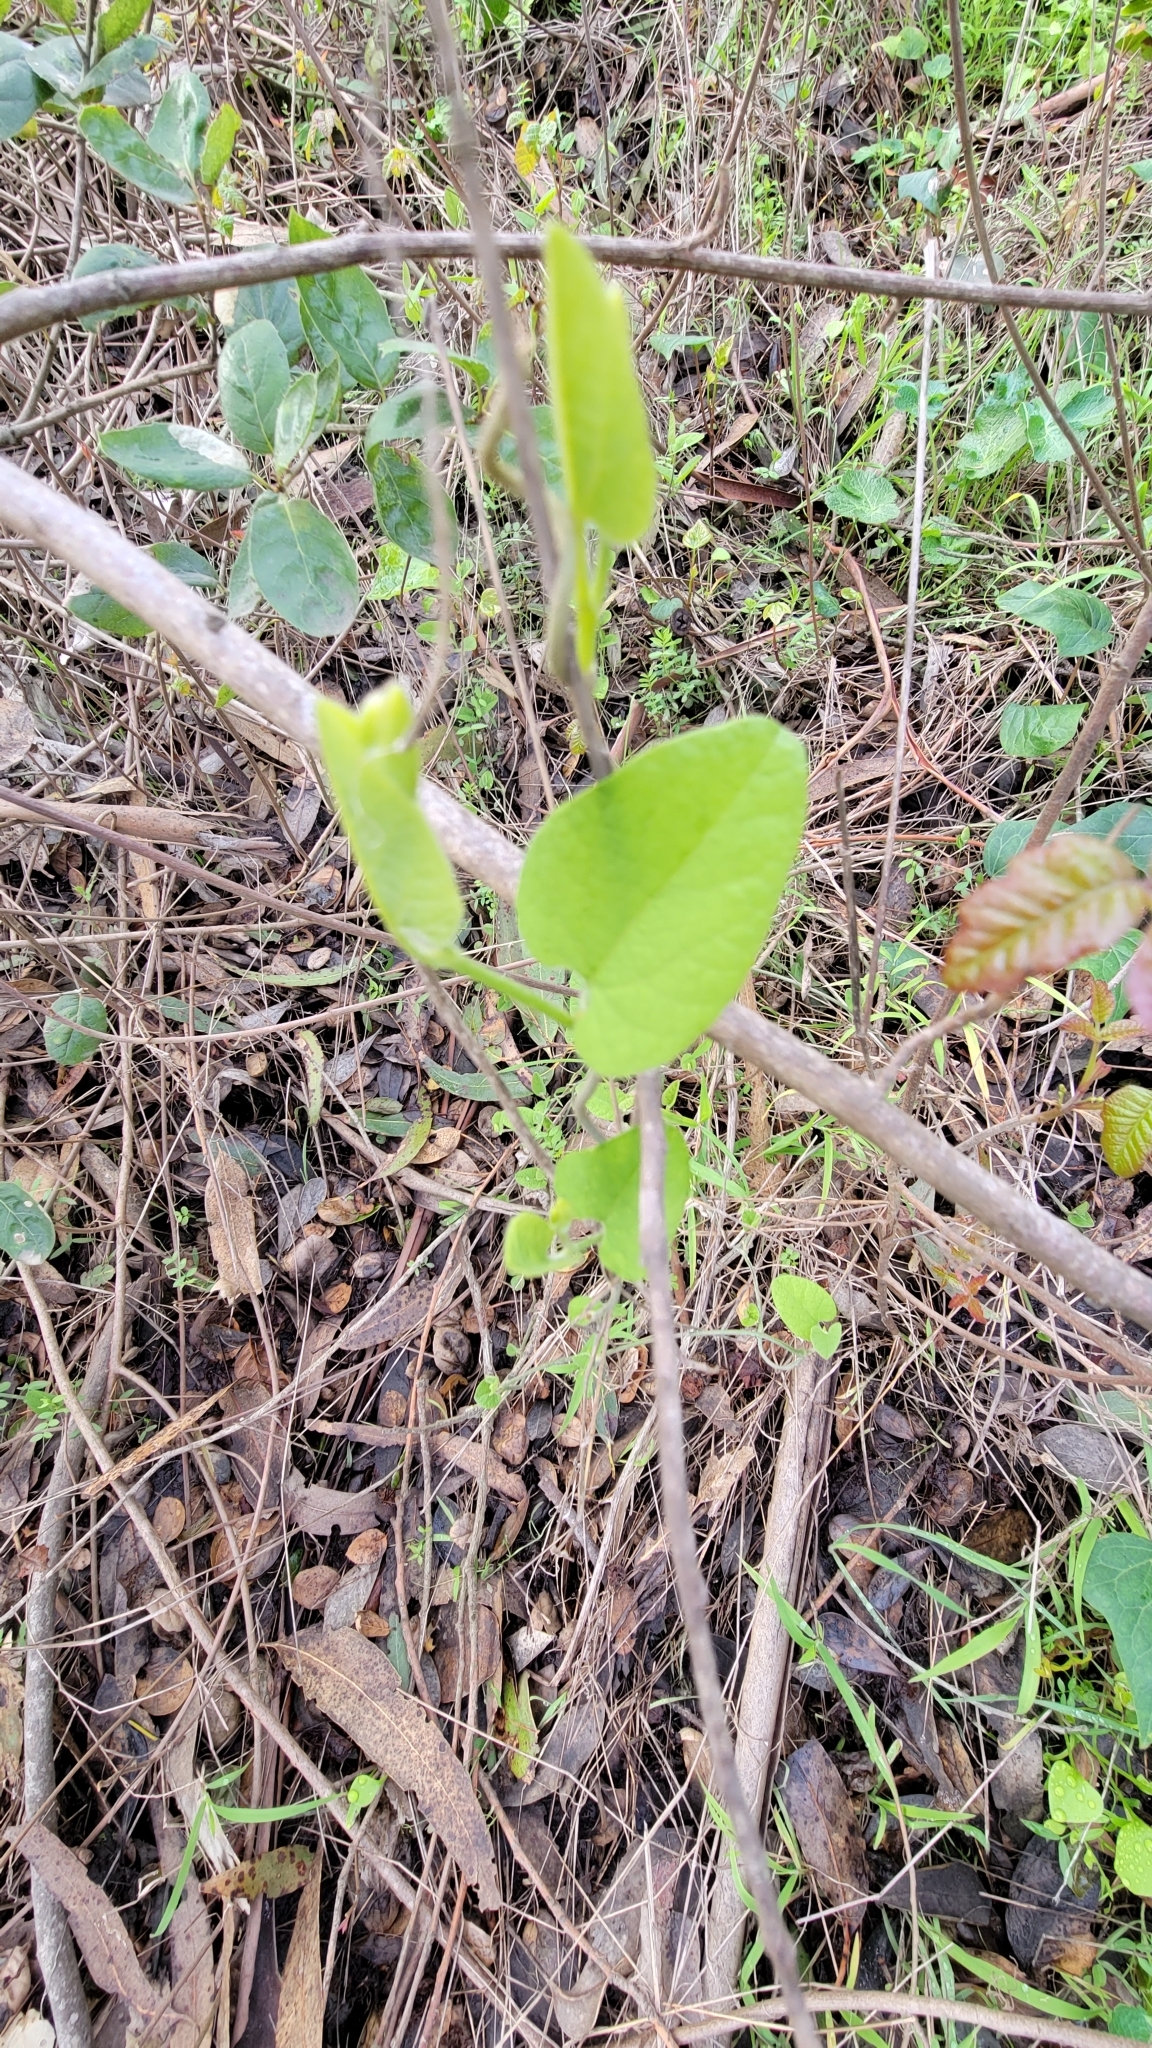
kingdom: Plantae
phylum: Tracheophyta
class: Magnoliopsida
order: Piperales
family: Aristolochiaceae
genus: Isotrema
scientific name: Isotrema californicum
